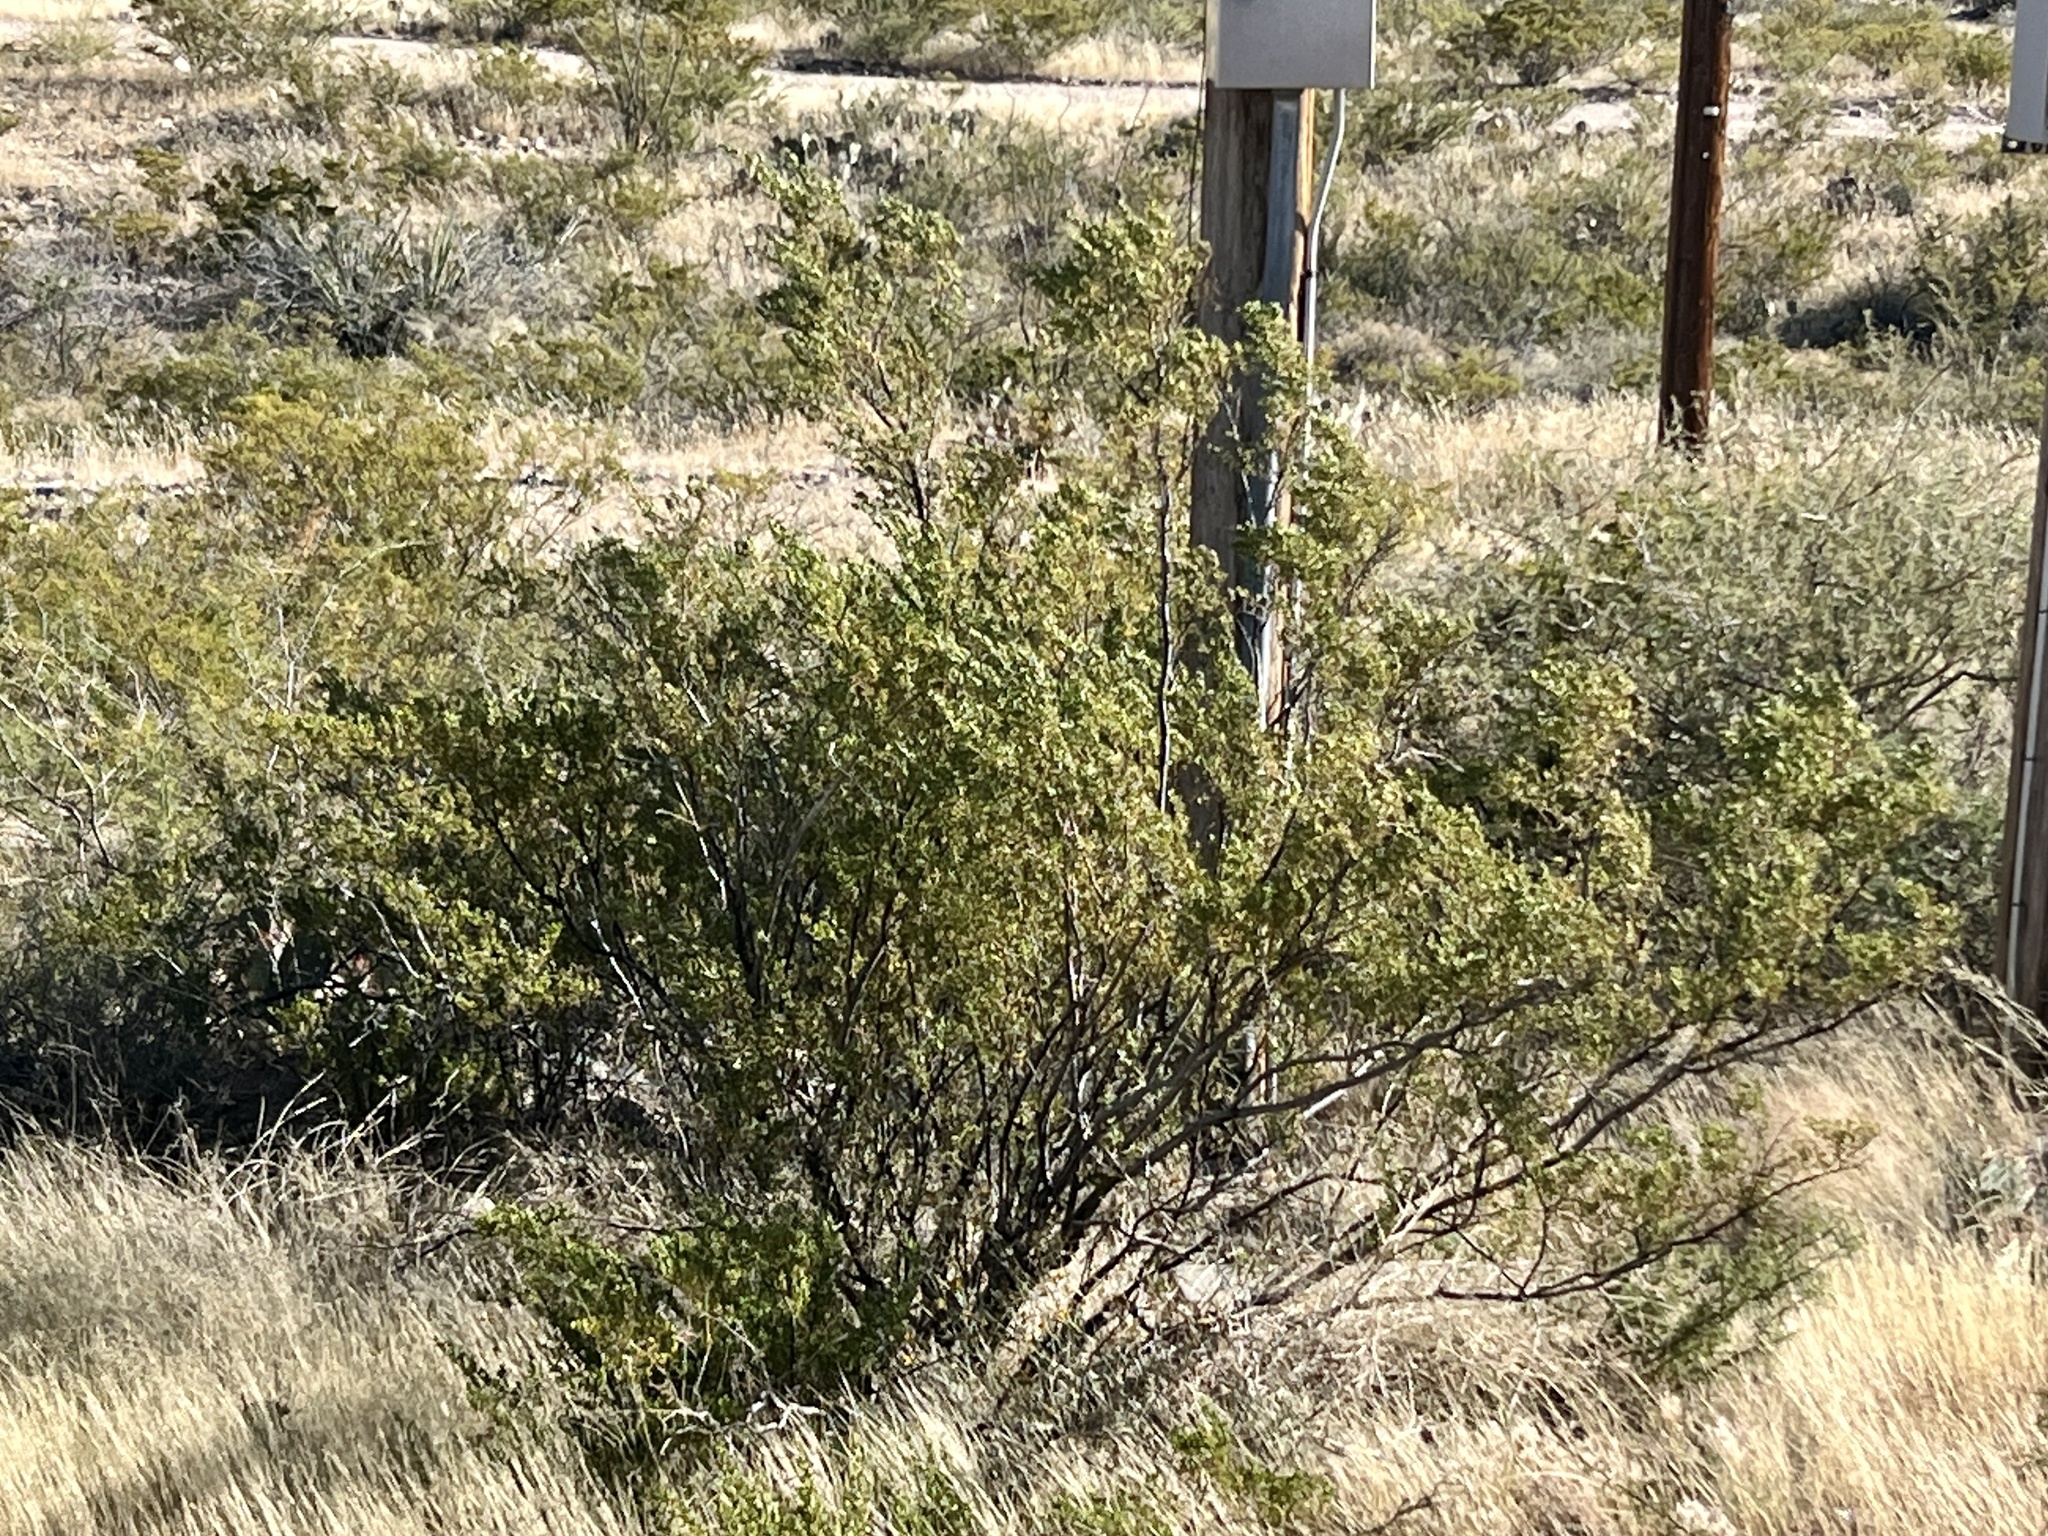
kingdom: Plantae
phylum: Tracheophyta
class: Magnoliopsida
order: Zygophyllales
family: Zygophyllaceae
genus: Larrea
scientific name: Larrea tridentata
